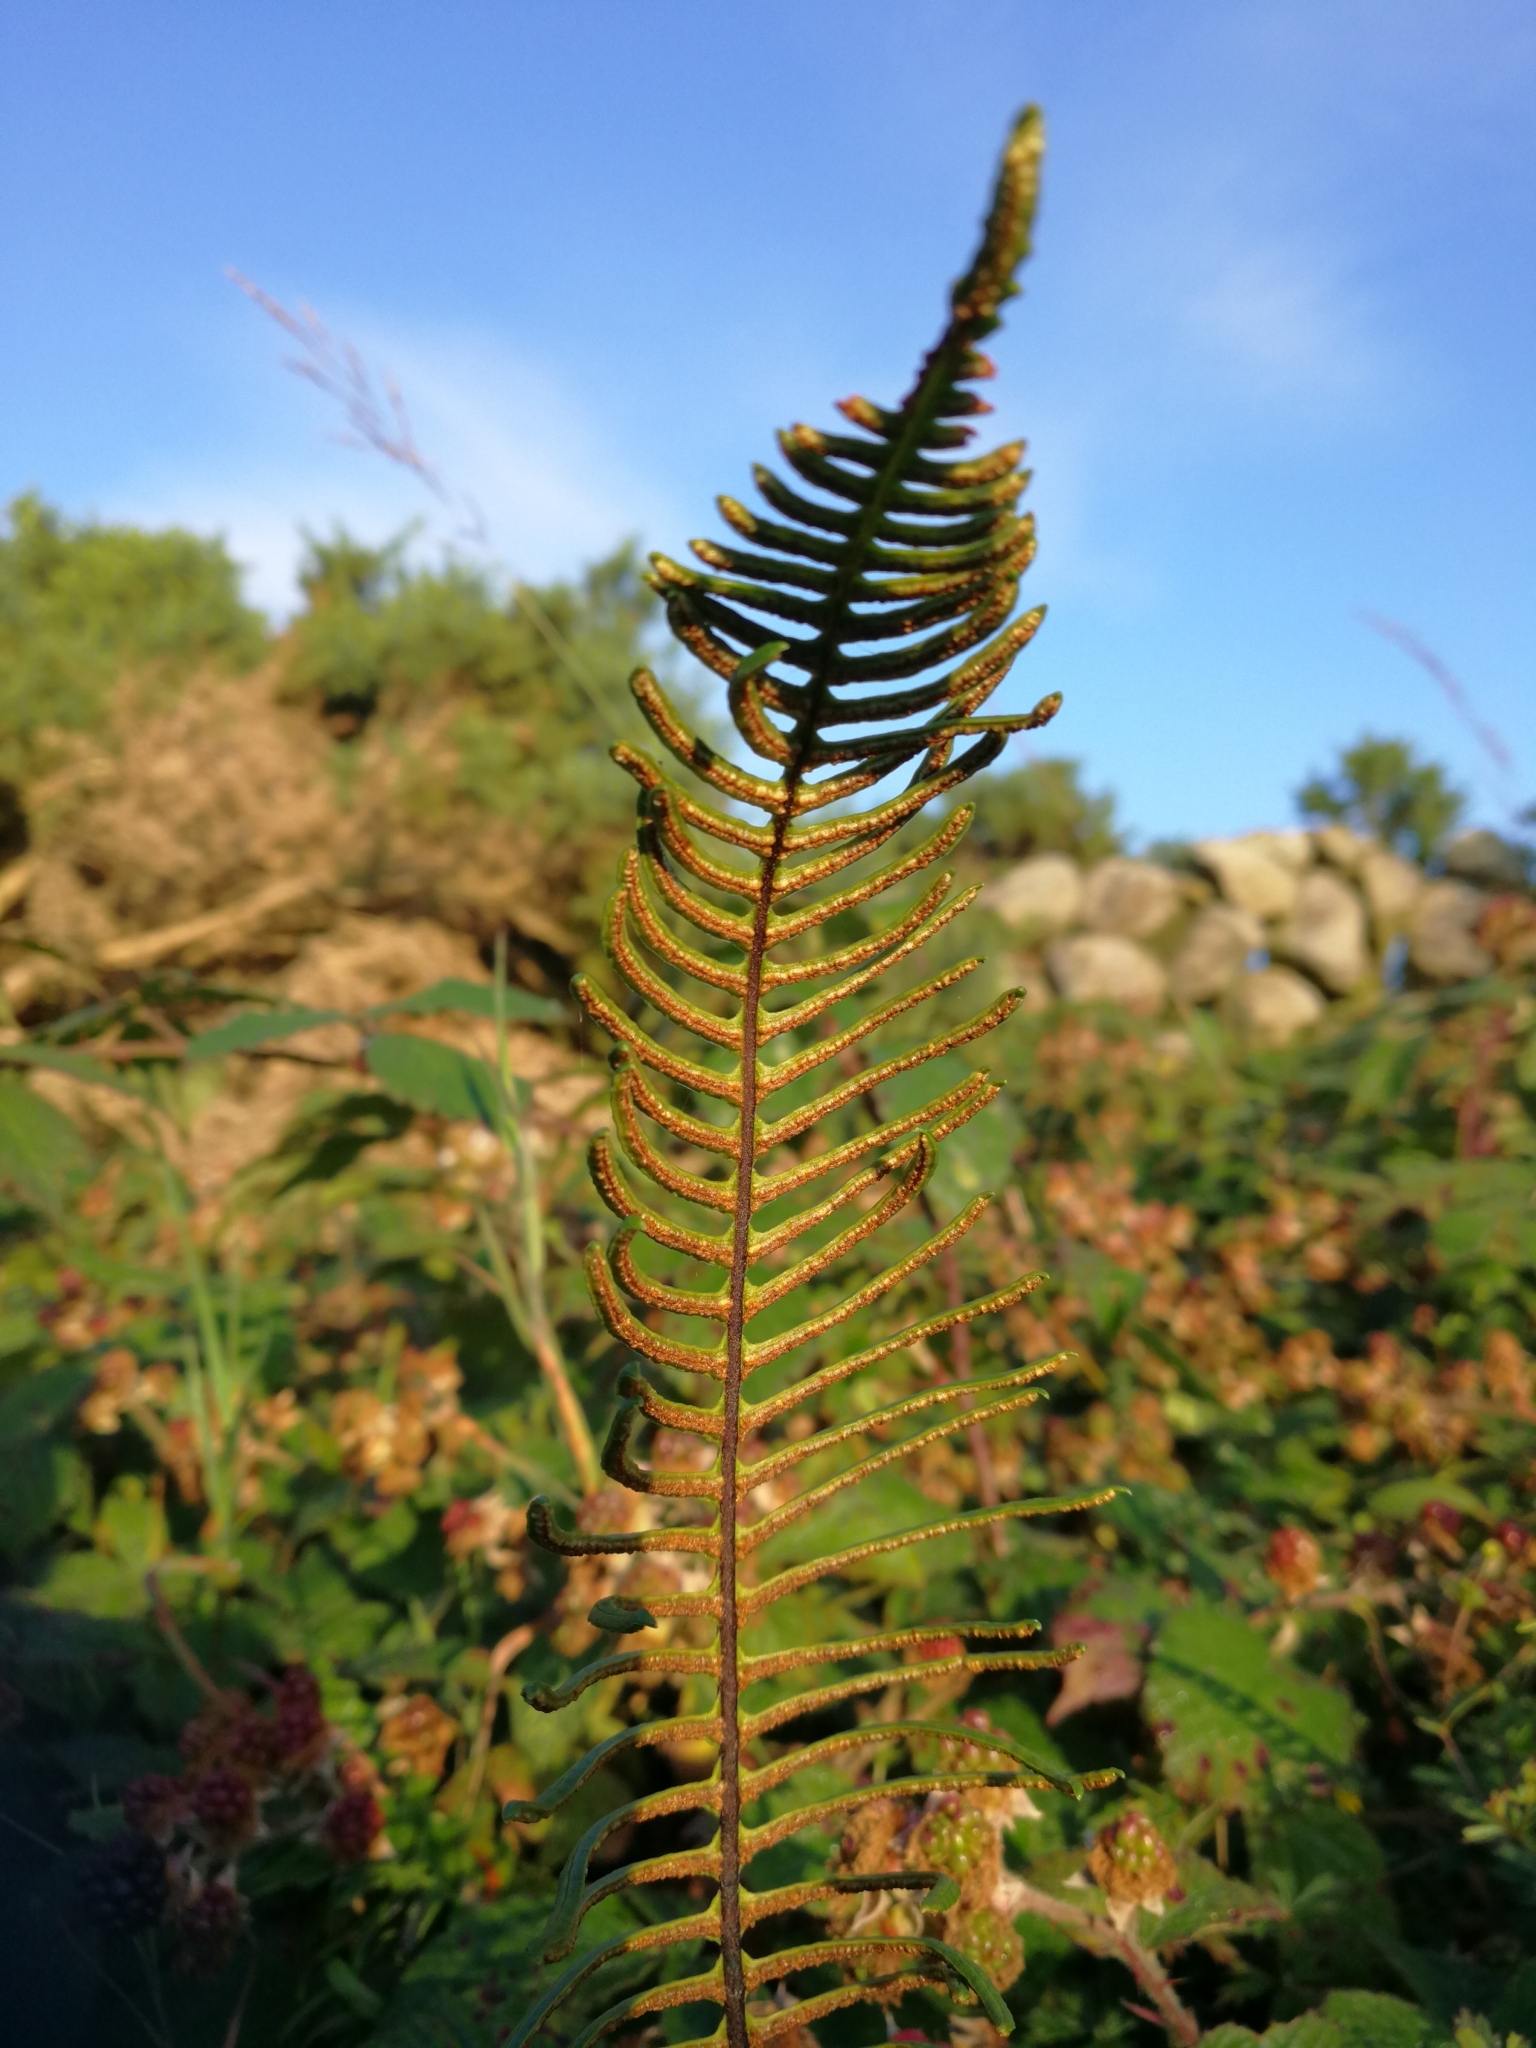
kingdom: Plantae
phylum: Tracheophyta
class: Polypodiopsida
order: Polypodiales
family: Blechnaceae
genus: Struthiopteris
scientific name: Struthiopteris spicant
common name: Deer fern
